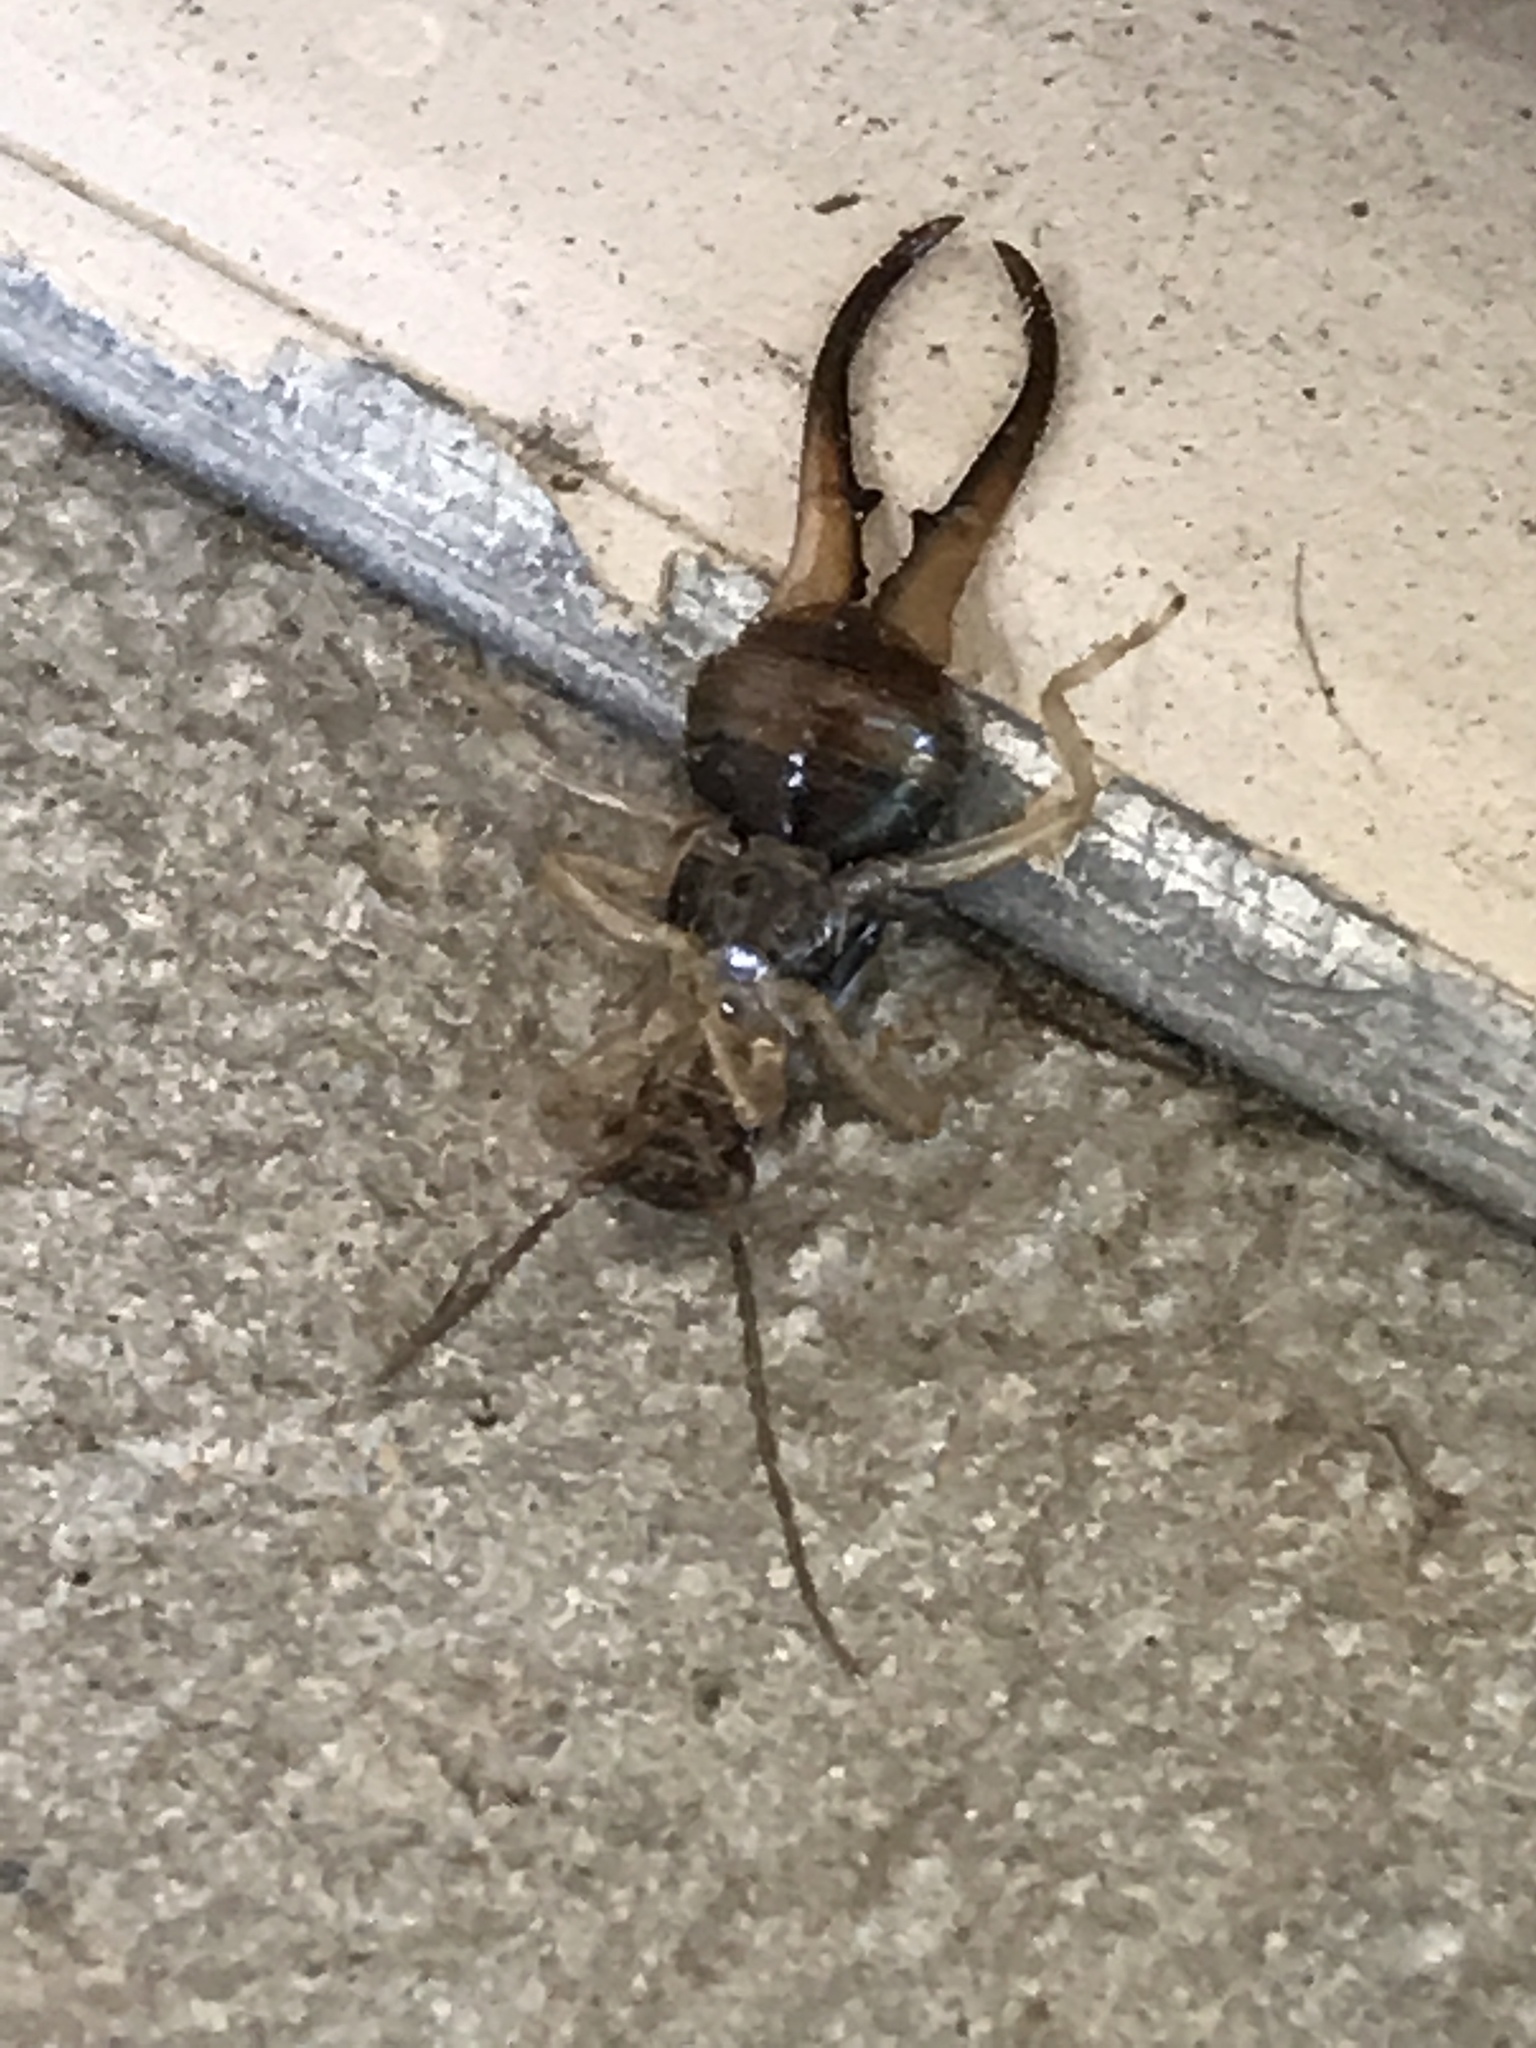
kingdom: Animalia
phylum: Arthropoda
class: Insecta
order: Dermaptera
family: Forficulidae
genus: Forficula
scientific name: Forficula
